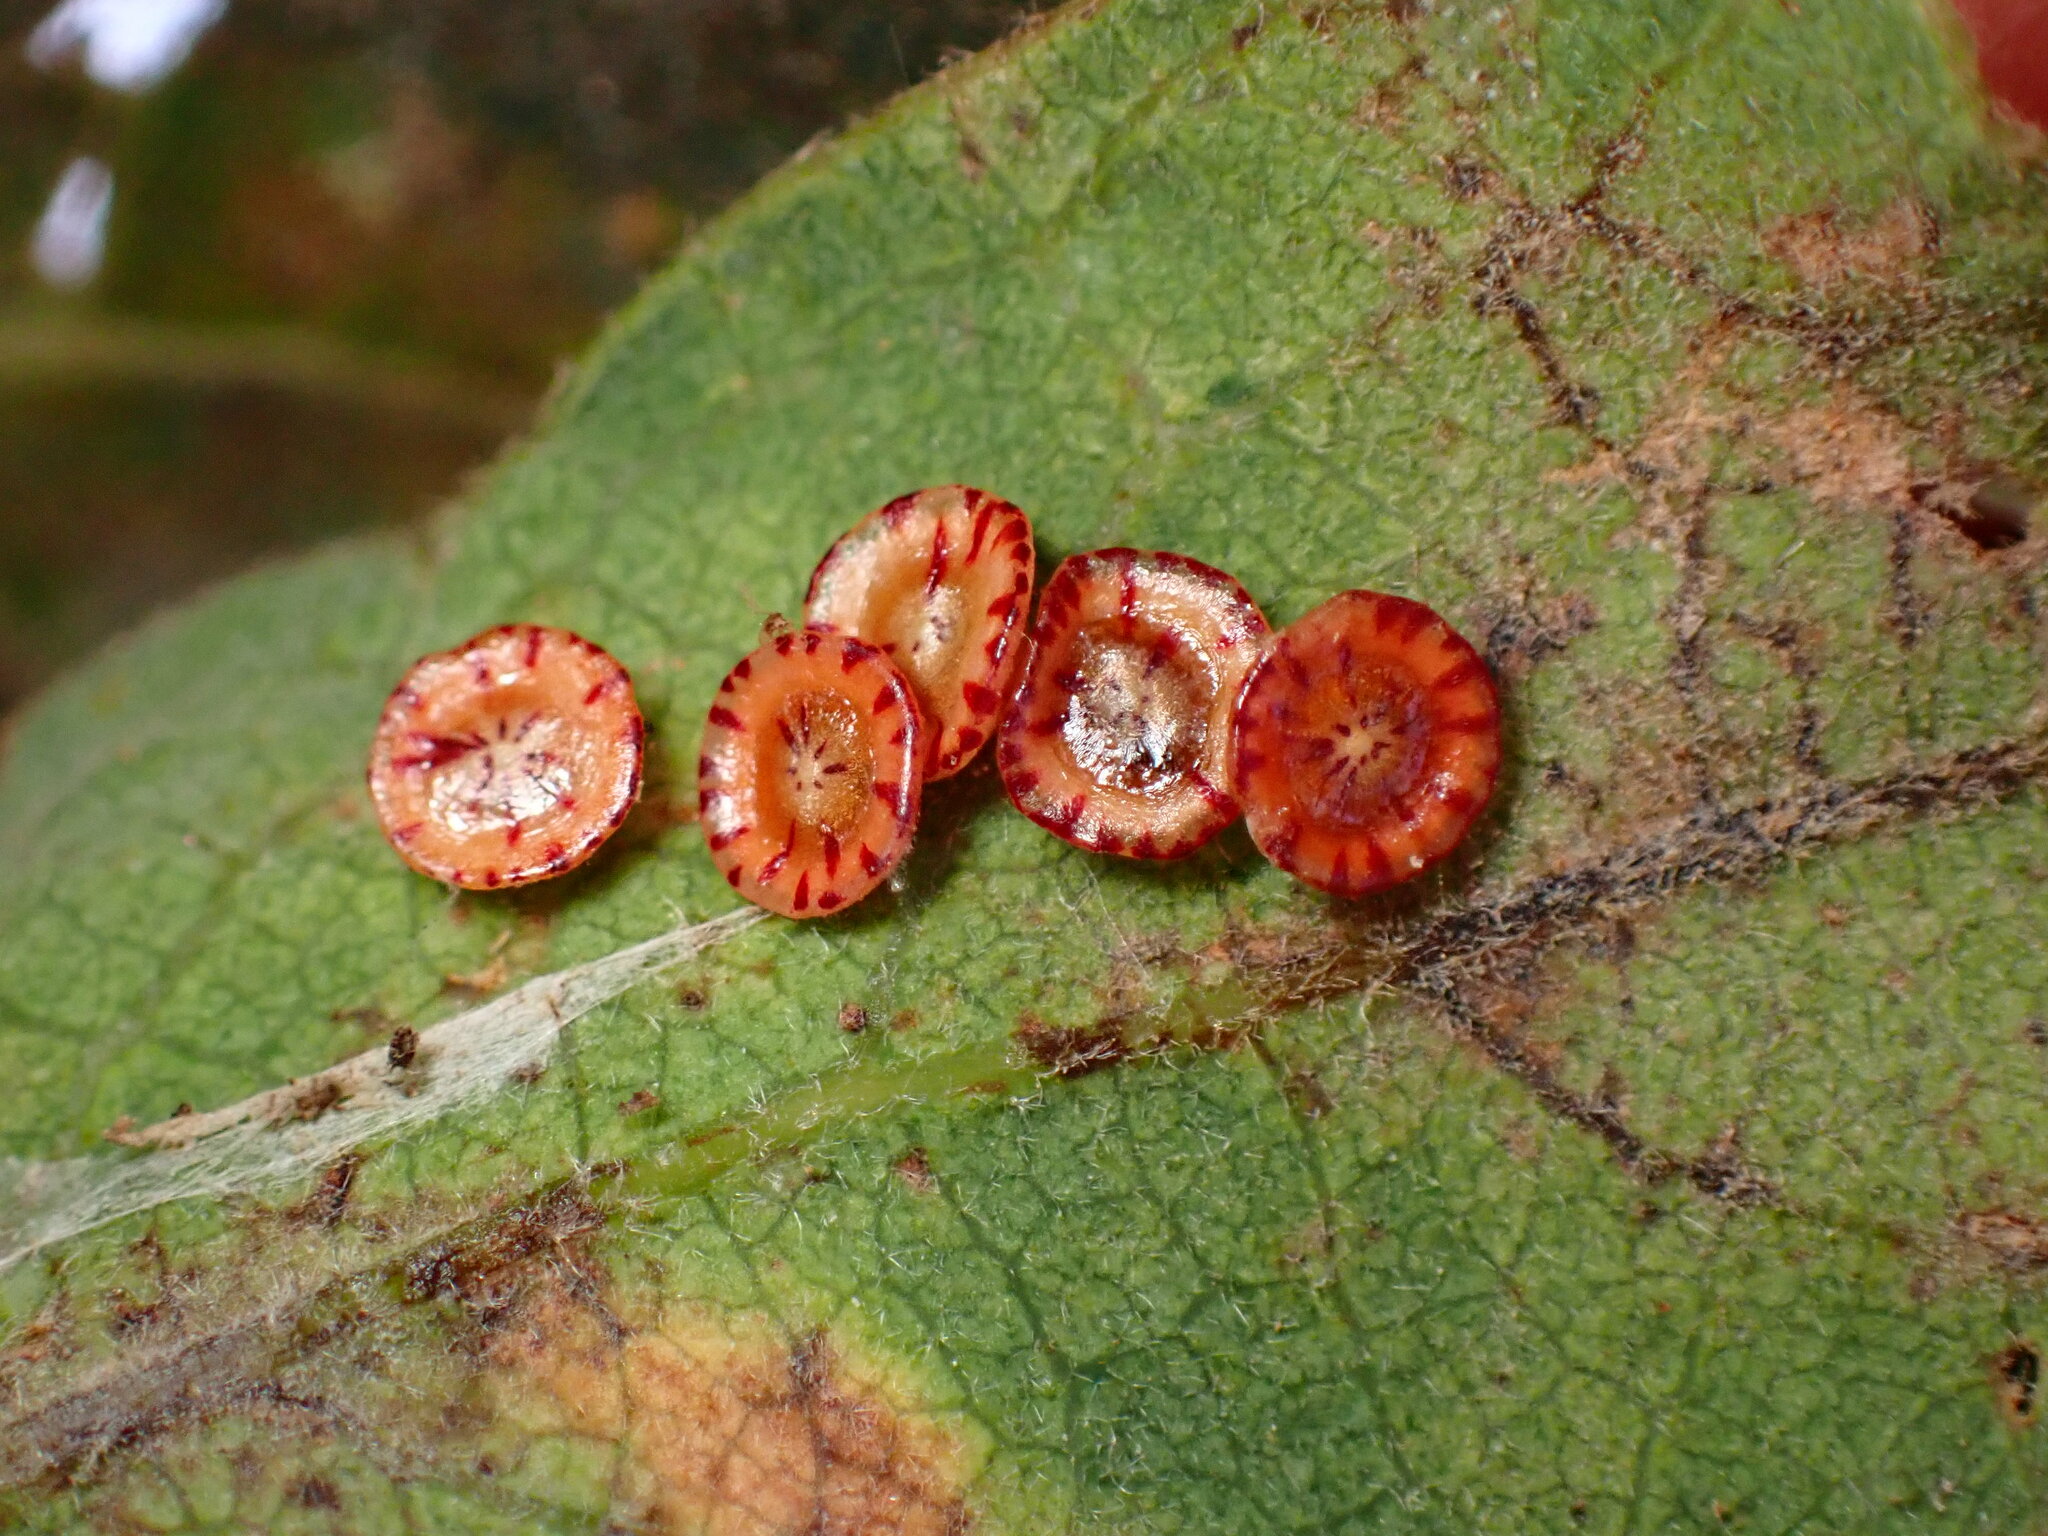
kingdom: Animalia
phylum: Arthropoda
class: Insecta
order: Hymenoptera
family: Cynipidae
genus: Andricus
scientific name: Andricus
